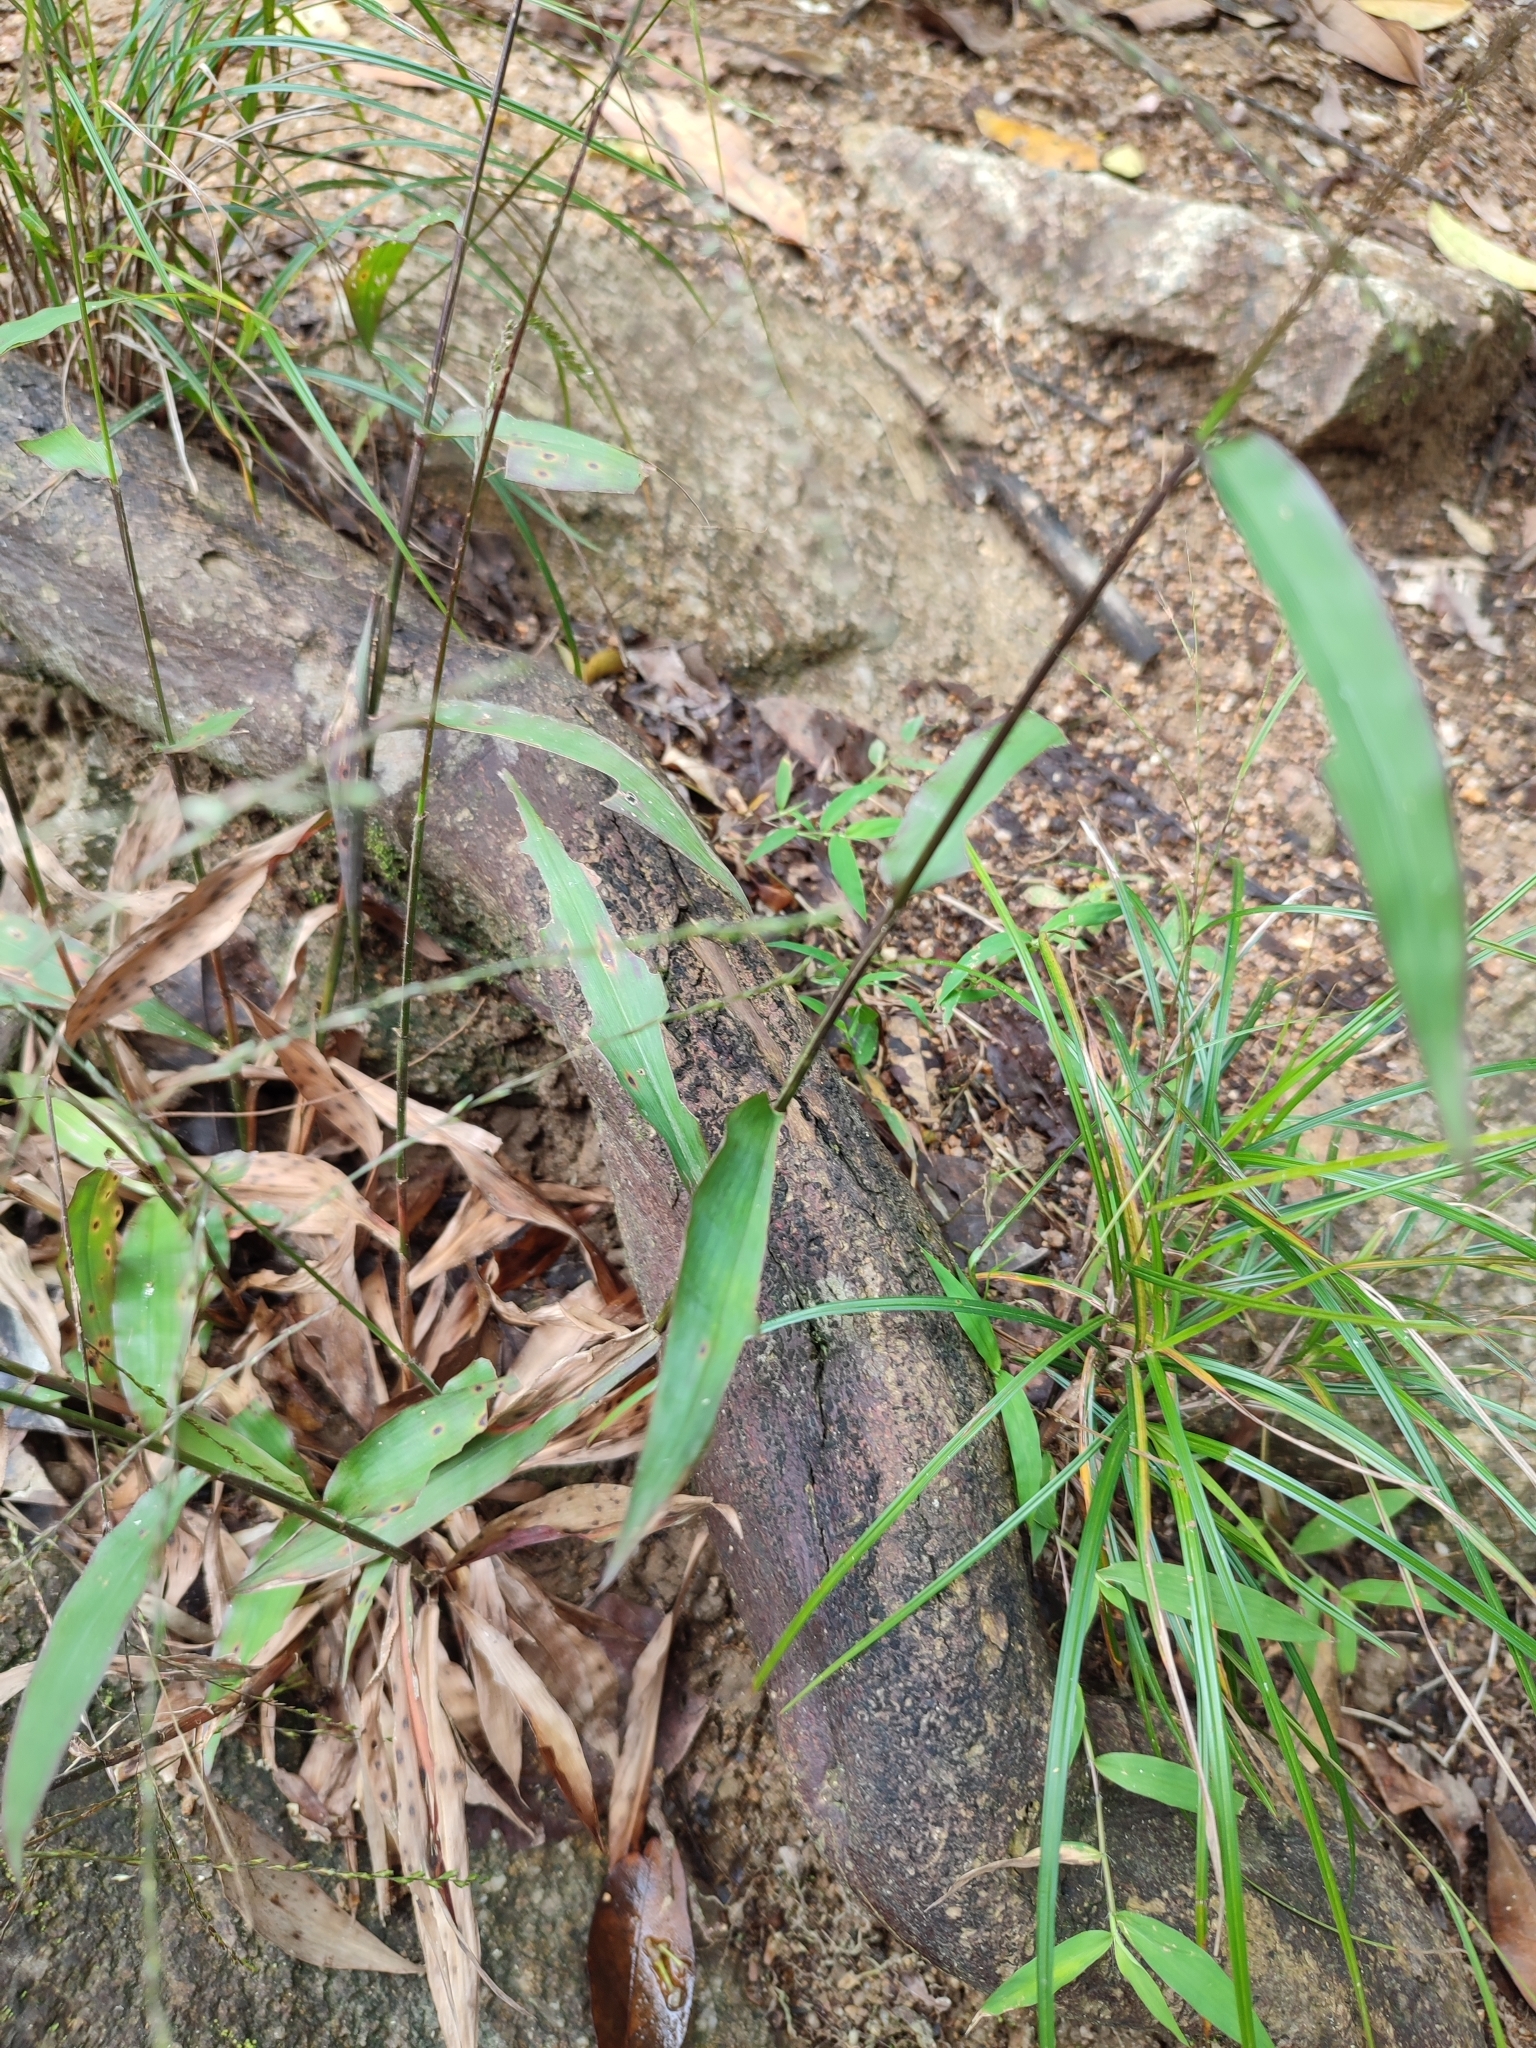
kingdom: Plantae
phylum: Tracheophyta
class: Liliopsida
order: Poales
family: Poaceae
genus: Centotheca
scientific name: Centotheca lappacea
